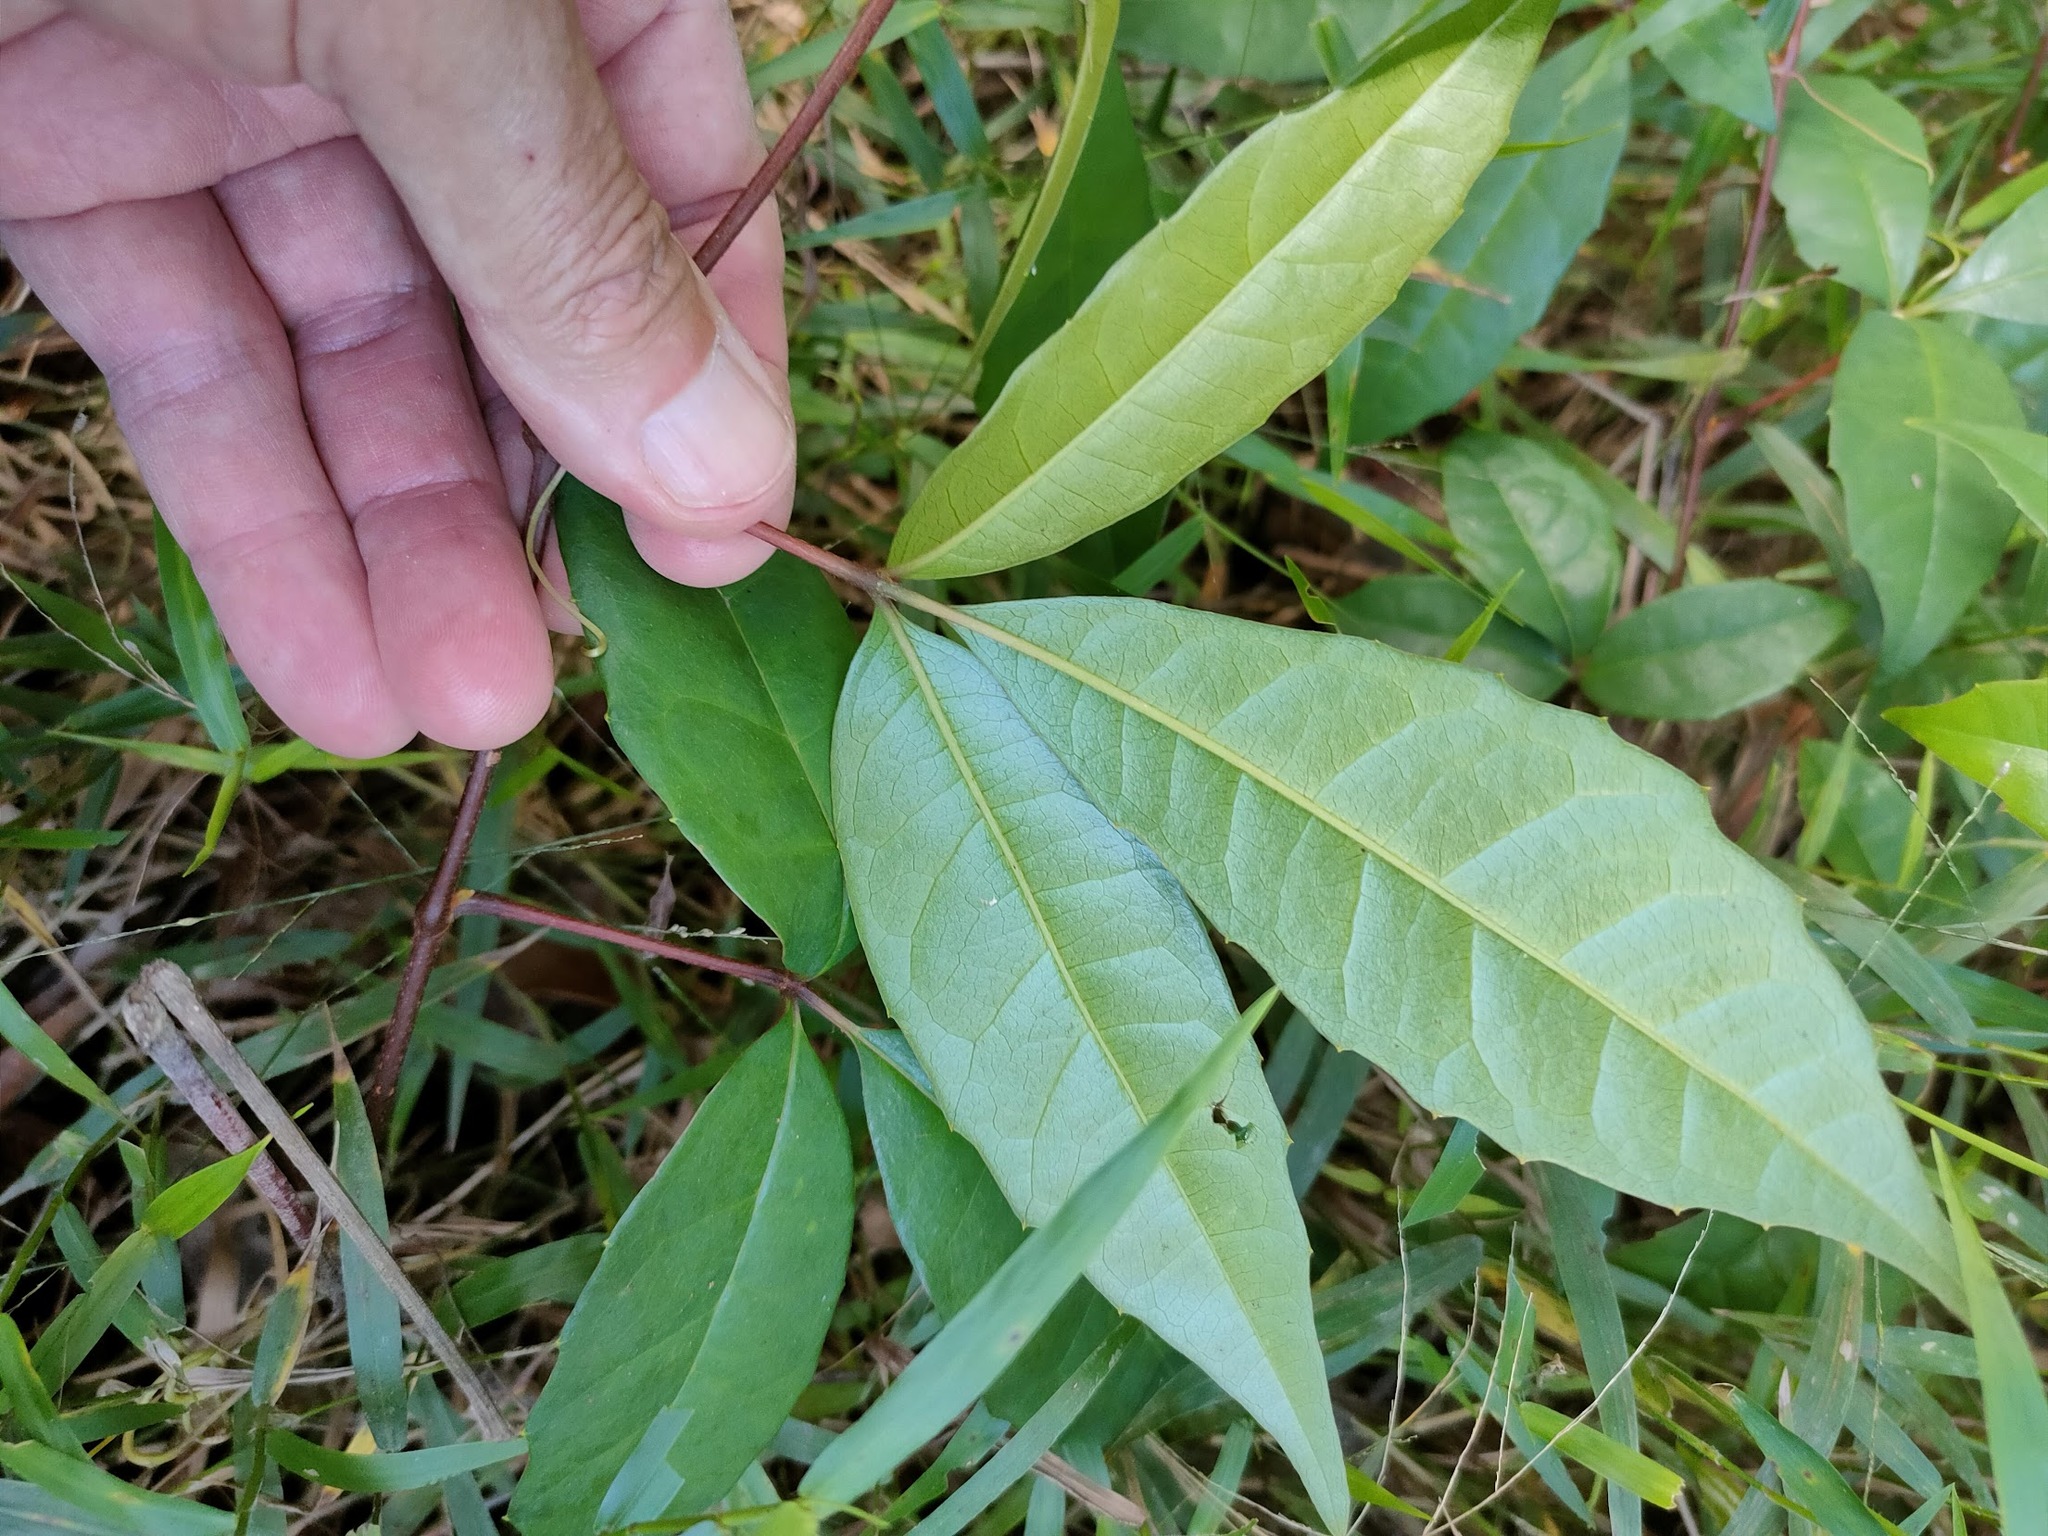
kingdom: Plantae
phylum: Tracheophyta
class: Magnoliopsida
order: Vitales
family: Vitaceae
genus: Nothocissus
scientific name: Nothocissus hypoglauca
